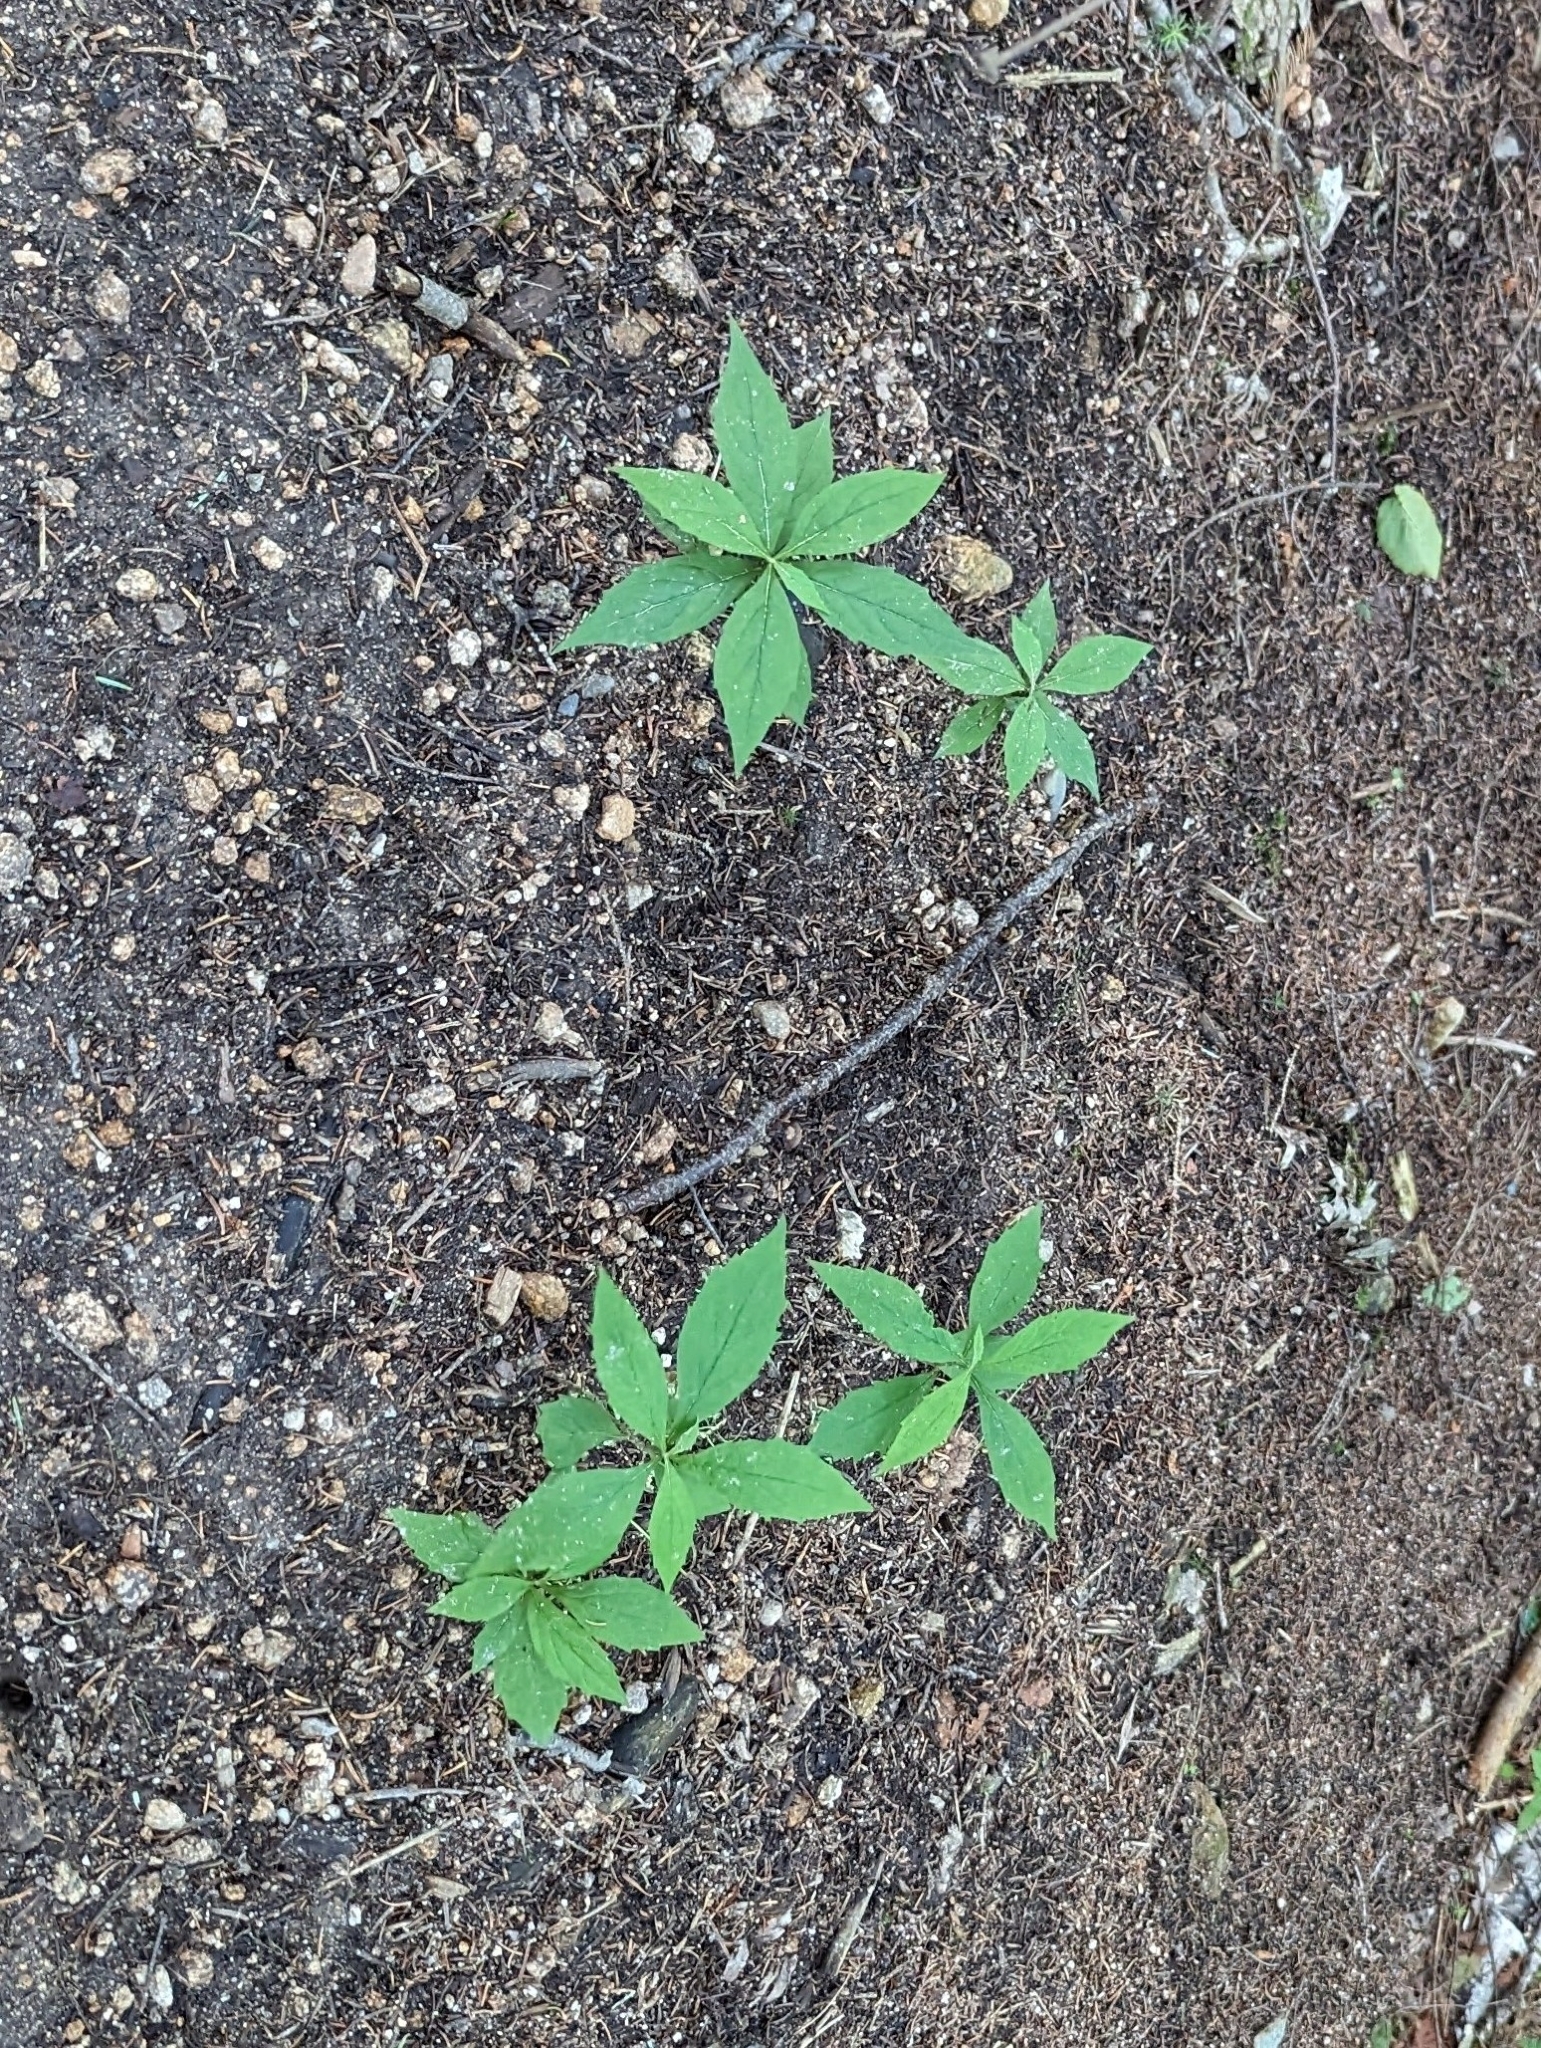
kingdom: Plantae
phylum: Tracheophyta
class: Magnoliopsida
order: Asterales
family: Asteraceae
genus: Oclemena
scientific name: Oclemena acuminata
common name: Mountain aster
